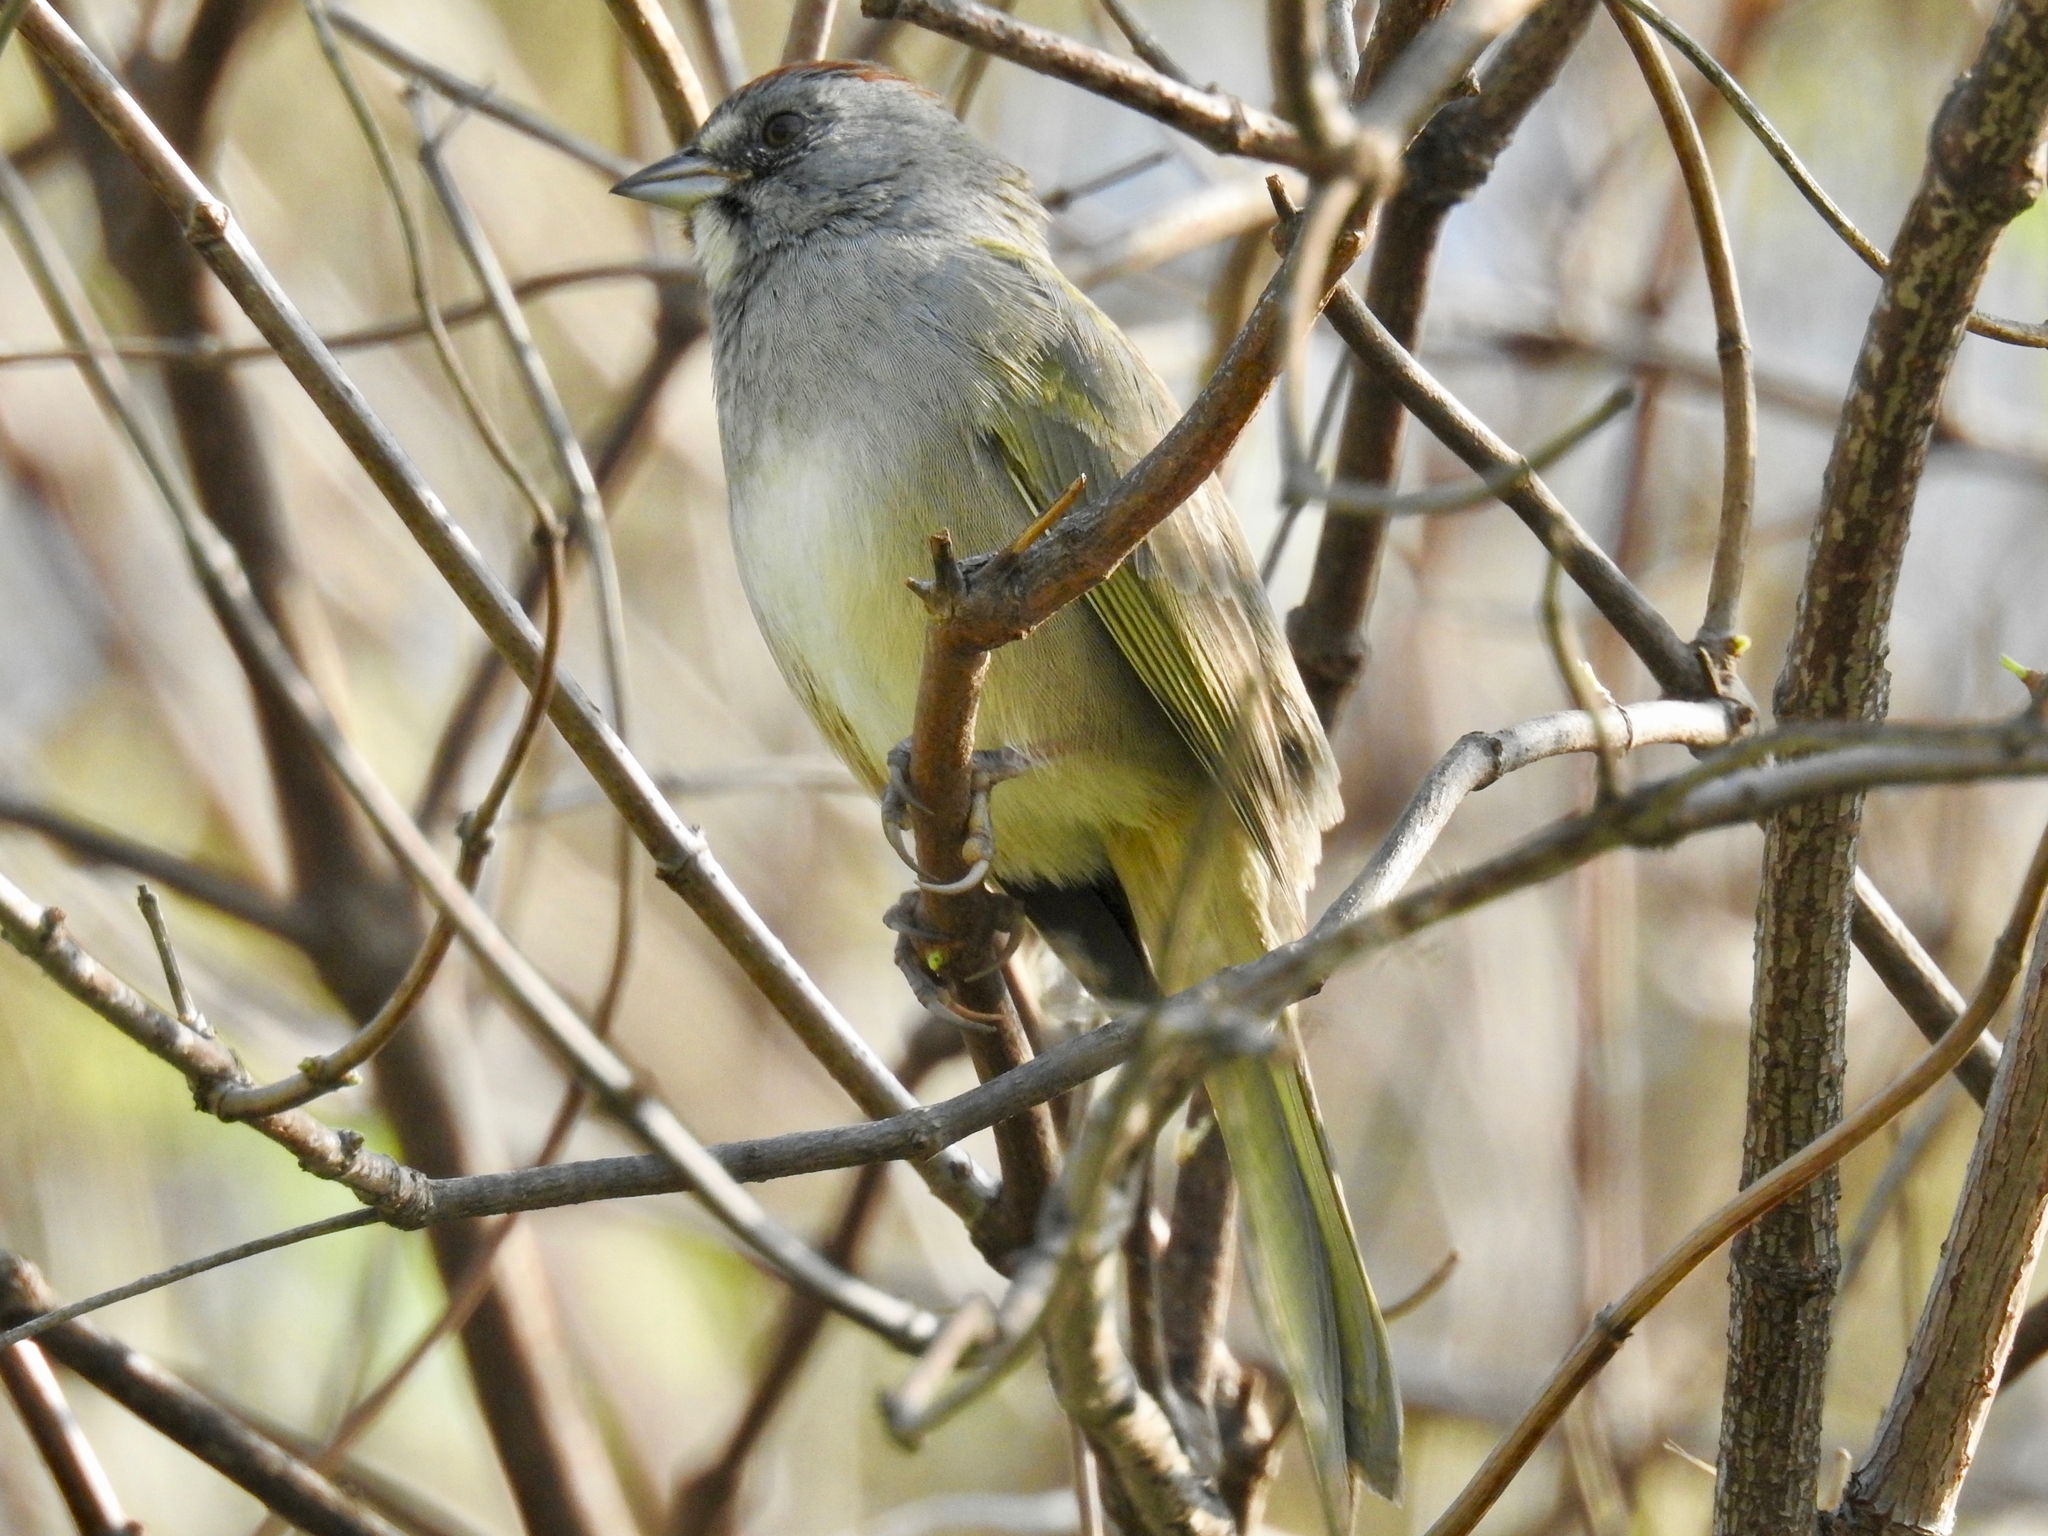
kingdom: Animalia
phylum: Chordata
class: Aves
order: Passeriformes
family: Passerellidae
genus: Pipilo
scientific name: Pipilo chlorurus
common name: Green-tailed towhee
